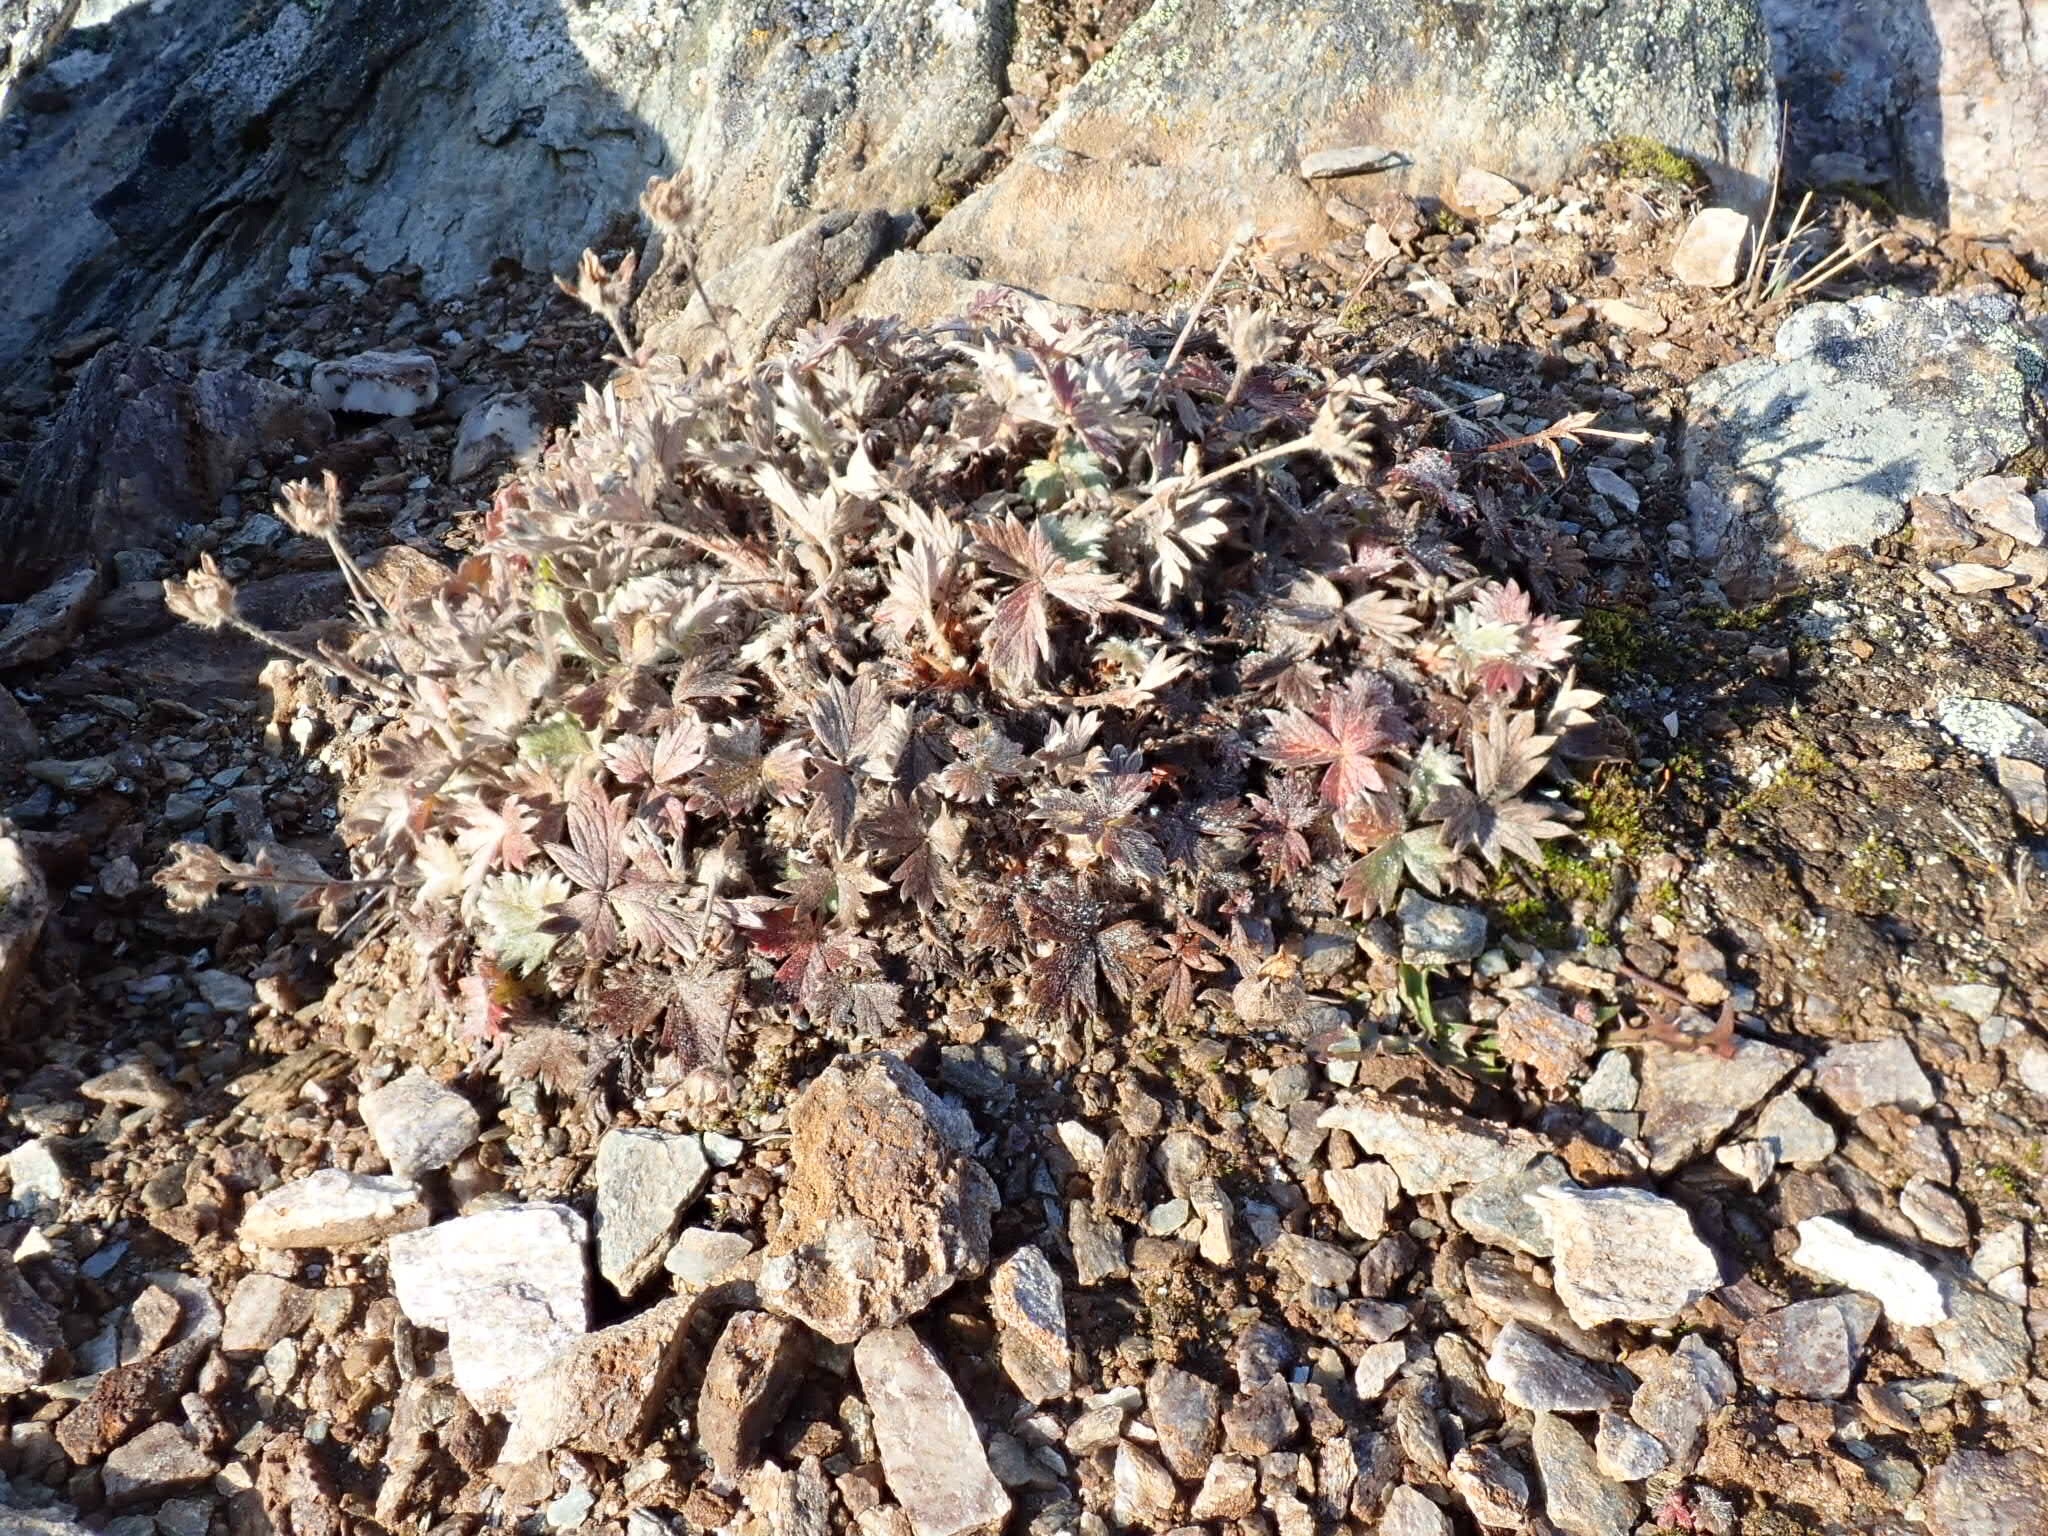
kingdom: Plantae
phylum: Tracheophyta
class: Magnoliopsida
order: Rosales
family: Rosaceae
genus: Potentilla
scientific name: Potentilla crebridens
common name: Congested cinquefoil
